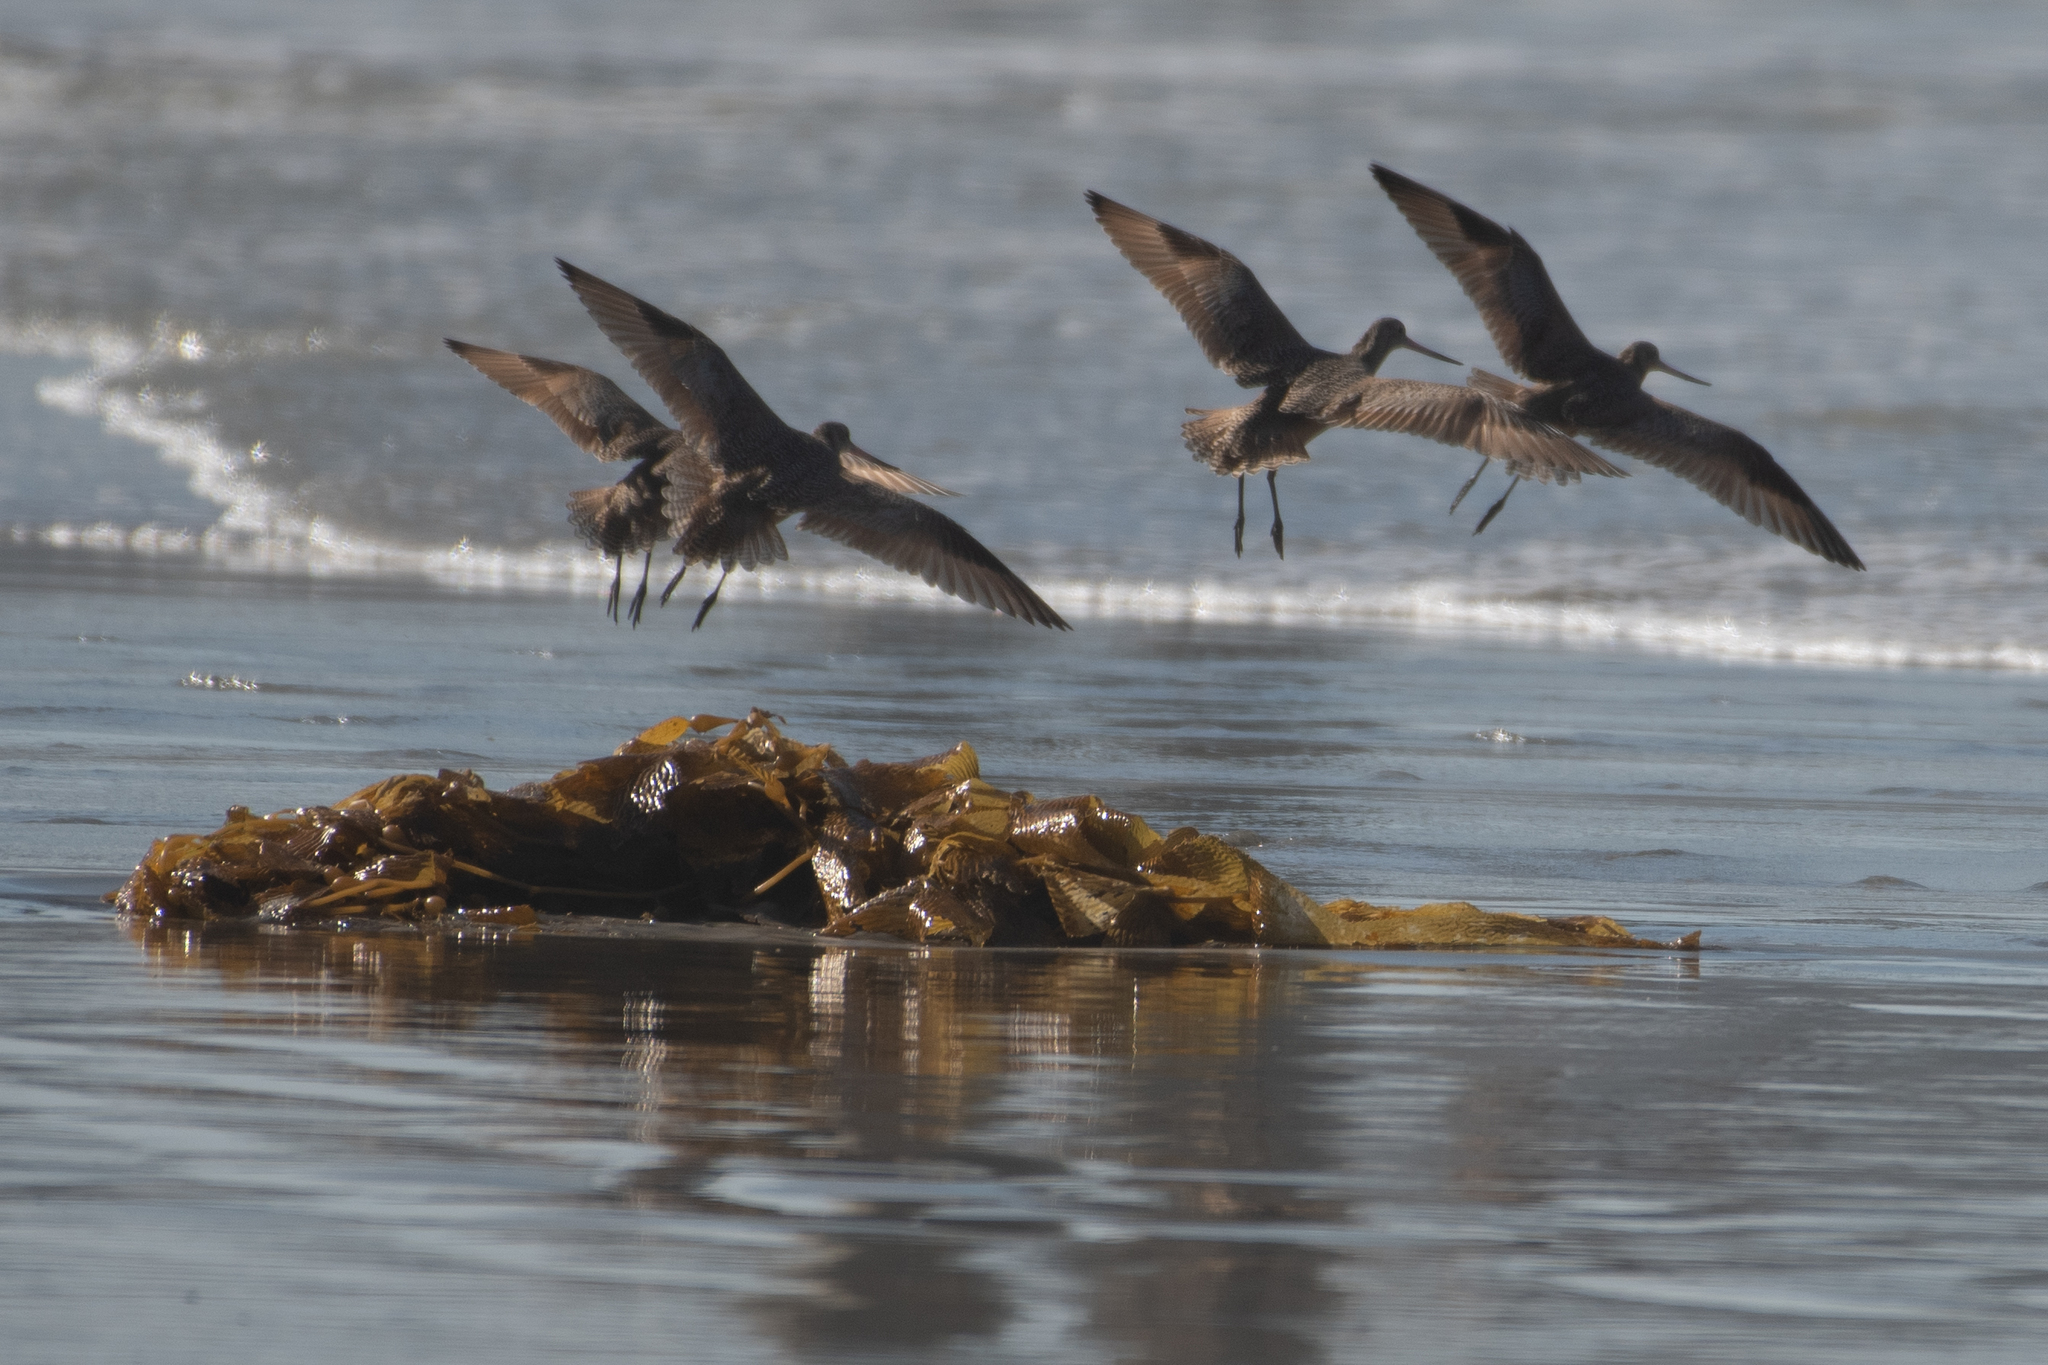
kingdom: Animalia
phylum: Chordata
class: Aves
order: Charadriiformes
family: Scolopacidae
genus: Limosa
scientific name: Limosa fedoa
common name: Marbled godwit
